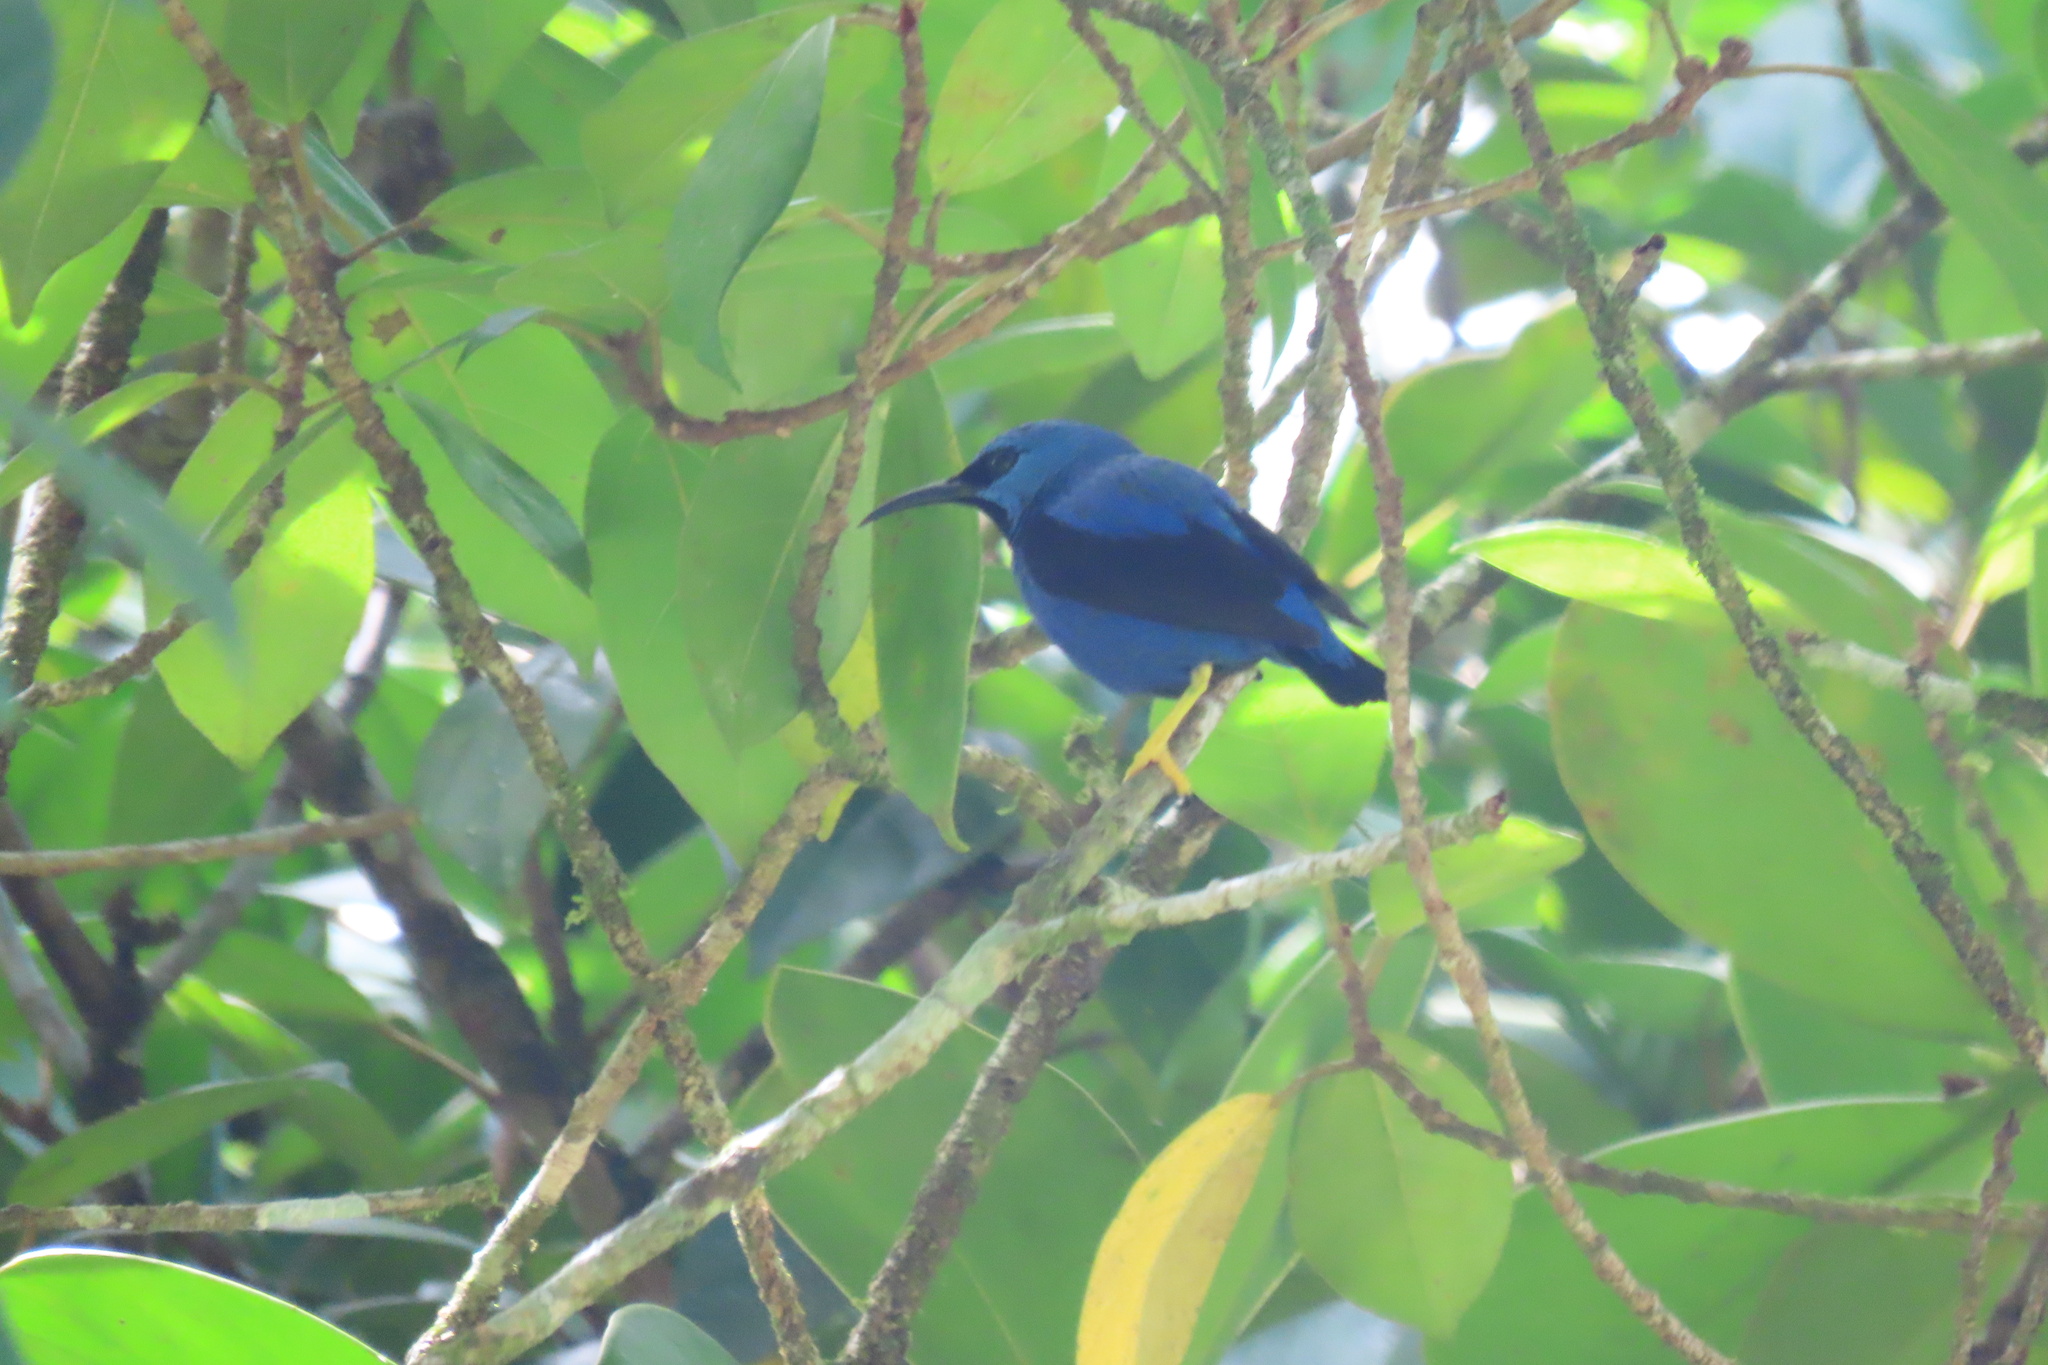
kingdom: Animalia
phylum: Chordata
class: Aves
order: Passeriformes
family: Thraupidae
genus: Cyanerpes
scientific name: Cyanerpes lucidus
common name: Shining honeycreeper
